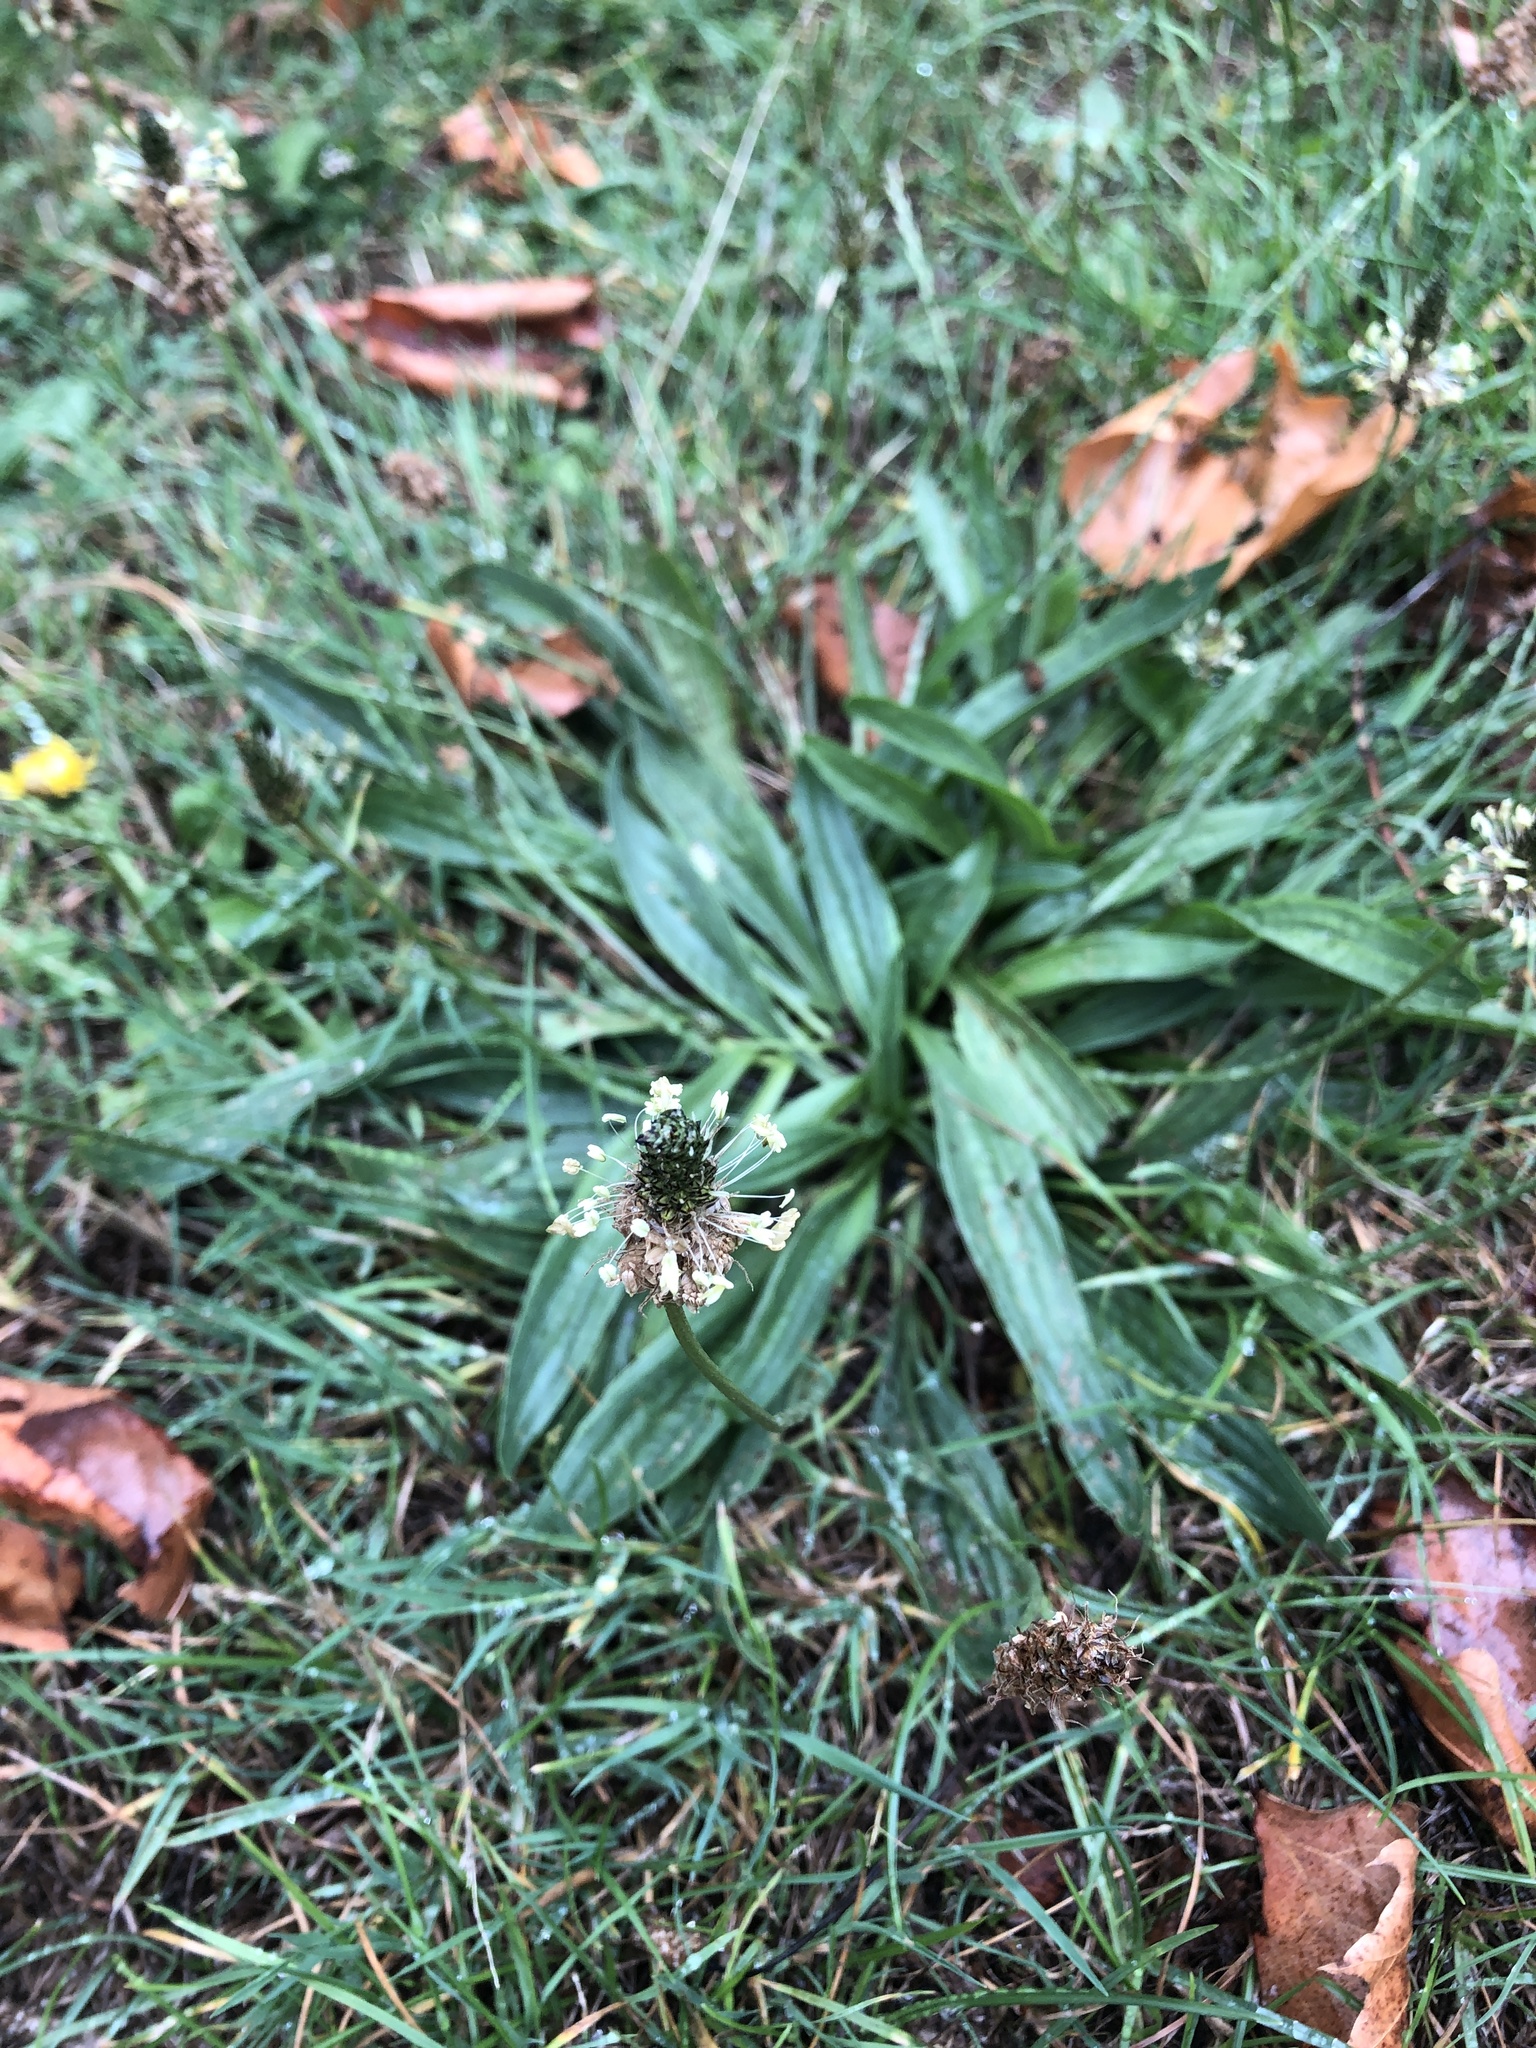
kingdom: Plantae
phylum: Tracheophyta
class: Magnoliopsida
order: Lamiales
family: Plantaginaceae
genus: Plantago
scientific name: Plantago lanceolata
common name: Ribwort plantain
